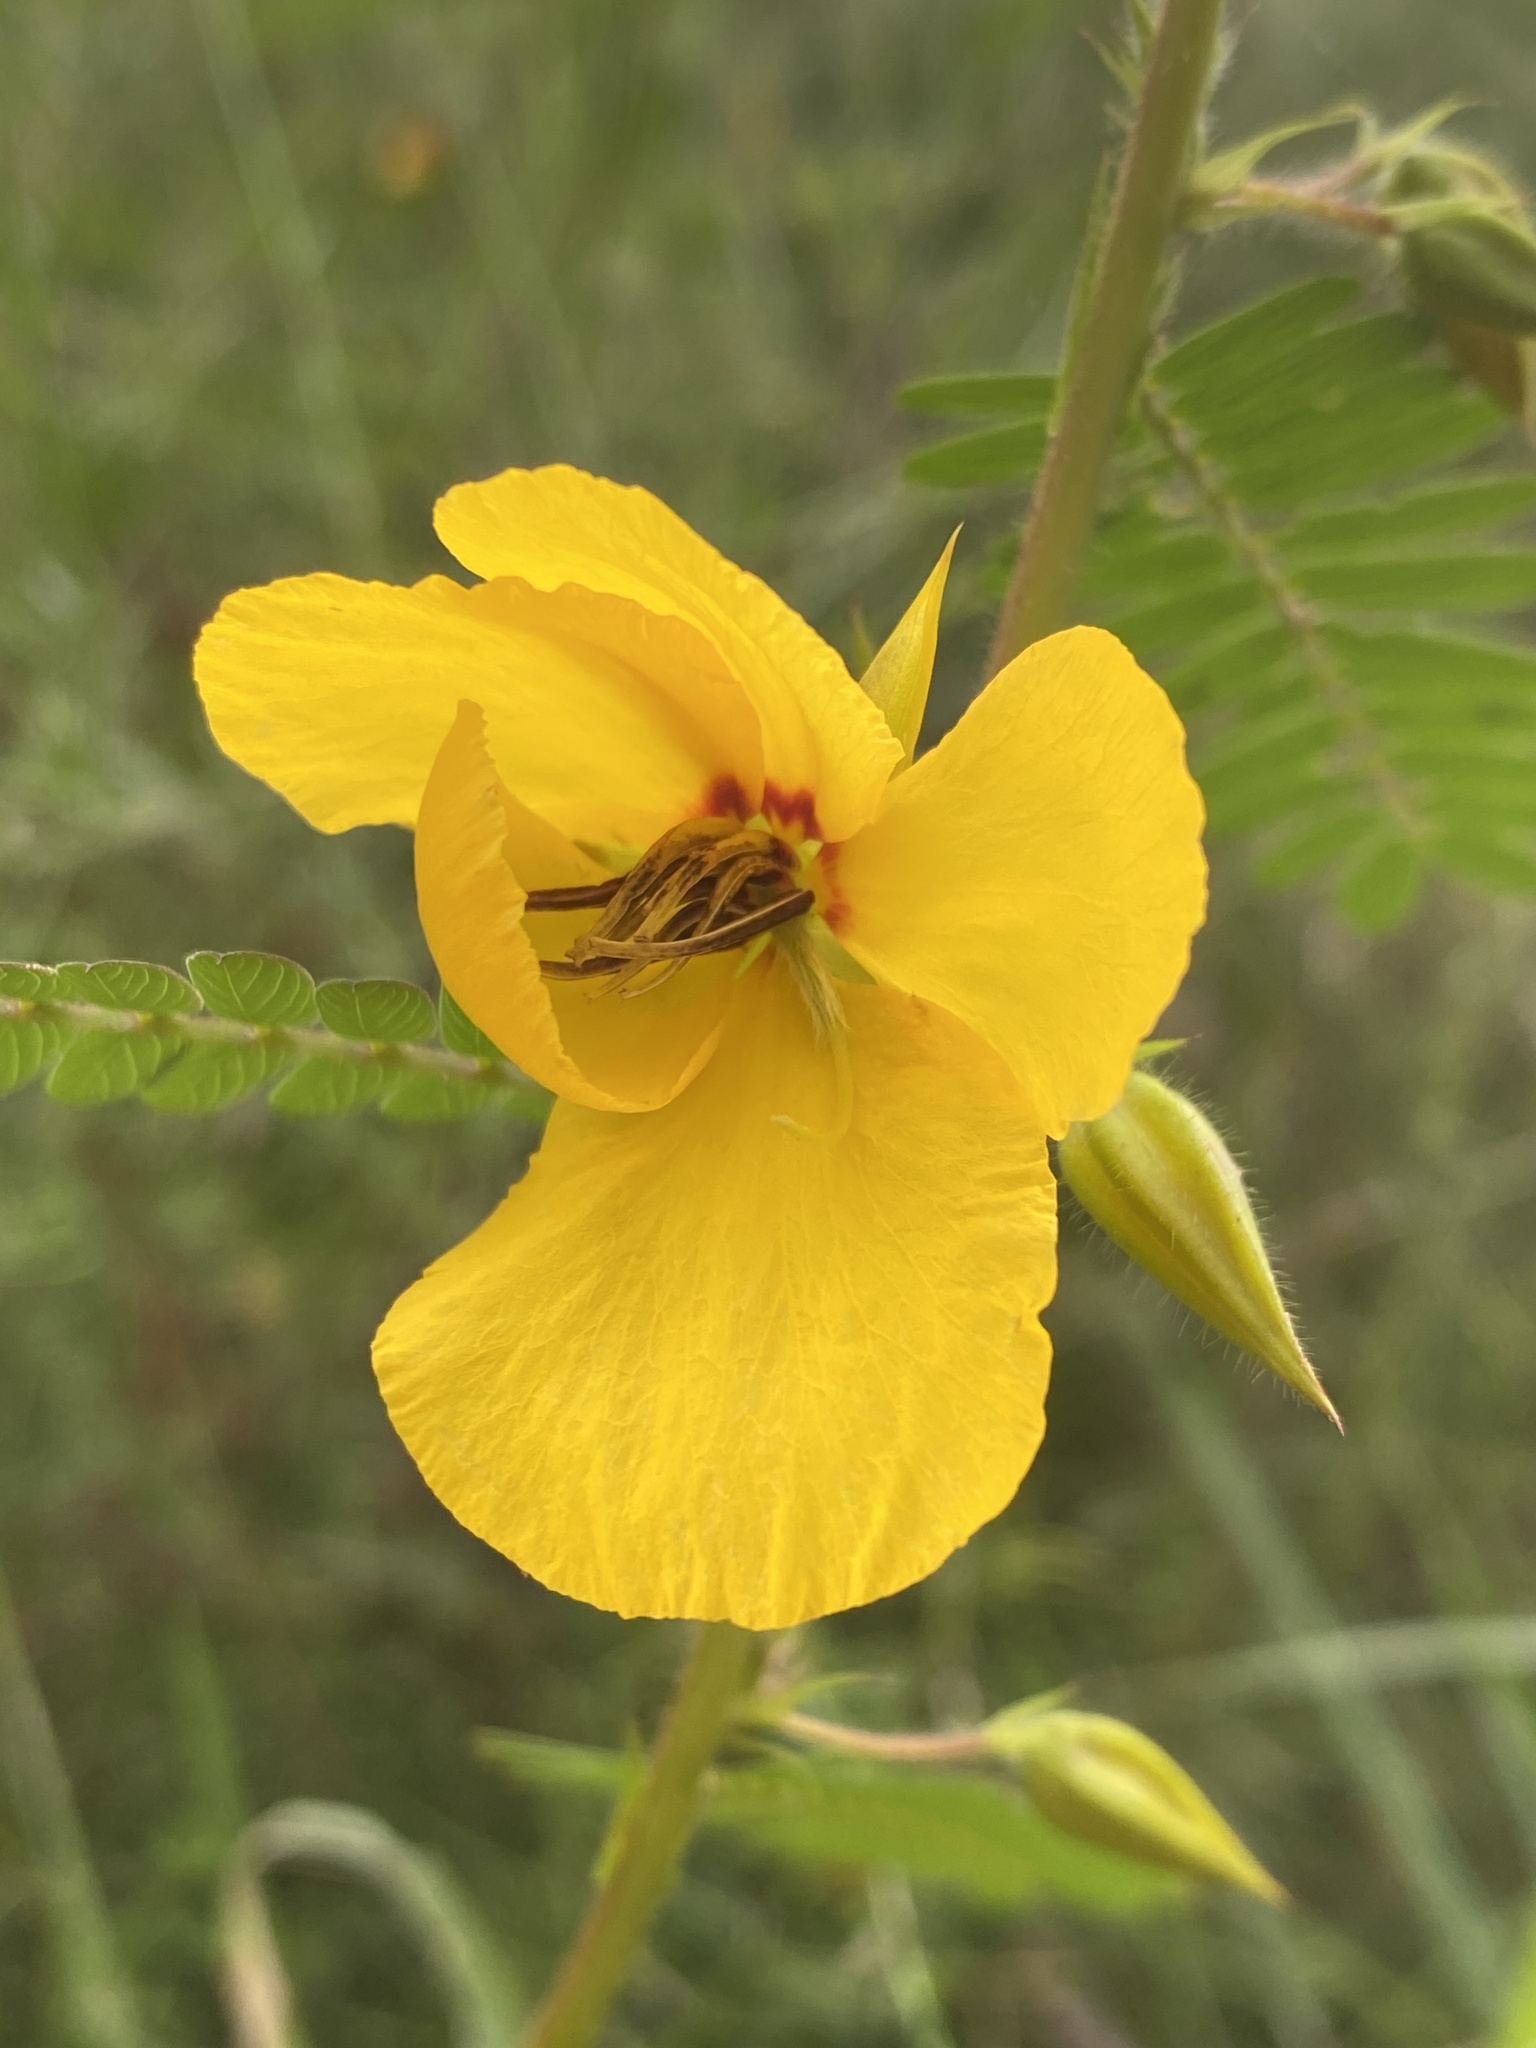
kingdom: Plantae
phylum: Tracheophyta
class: Magnoliopsida
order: Fabales
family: Fabaceae
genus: Chamaecrista
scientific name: Chamaecrista fasciculata
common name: Golden cassia
